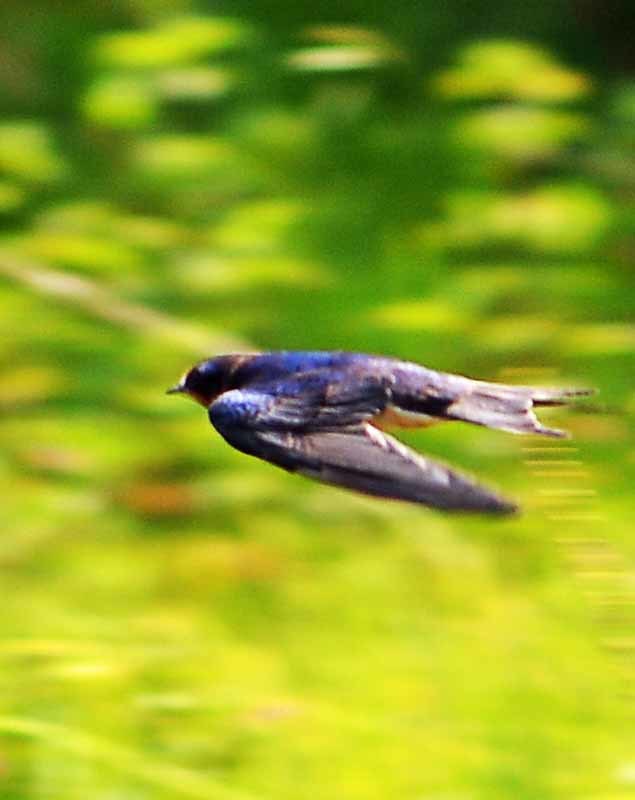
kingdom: Animalia
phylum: Chordata
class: Aves
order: Passeriformes
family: Hirundinidae
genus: Hirundo
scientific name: Hirundo rustica
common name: Barn swallow
